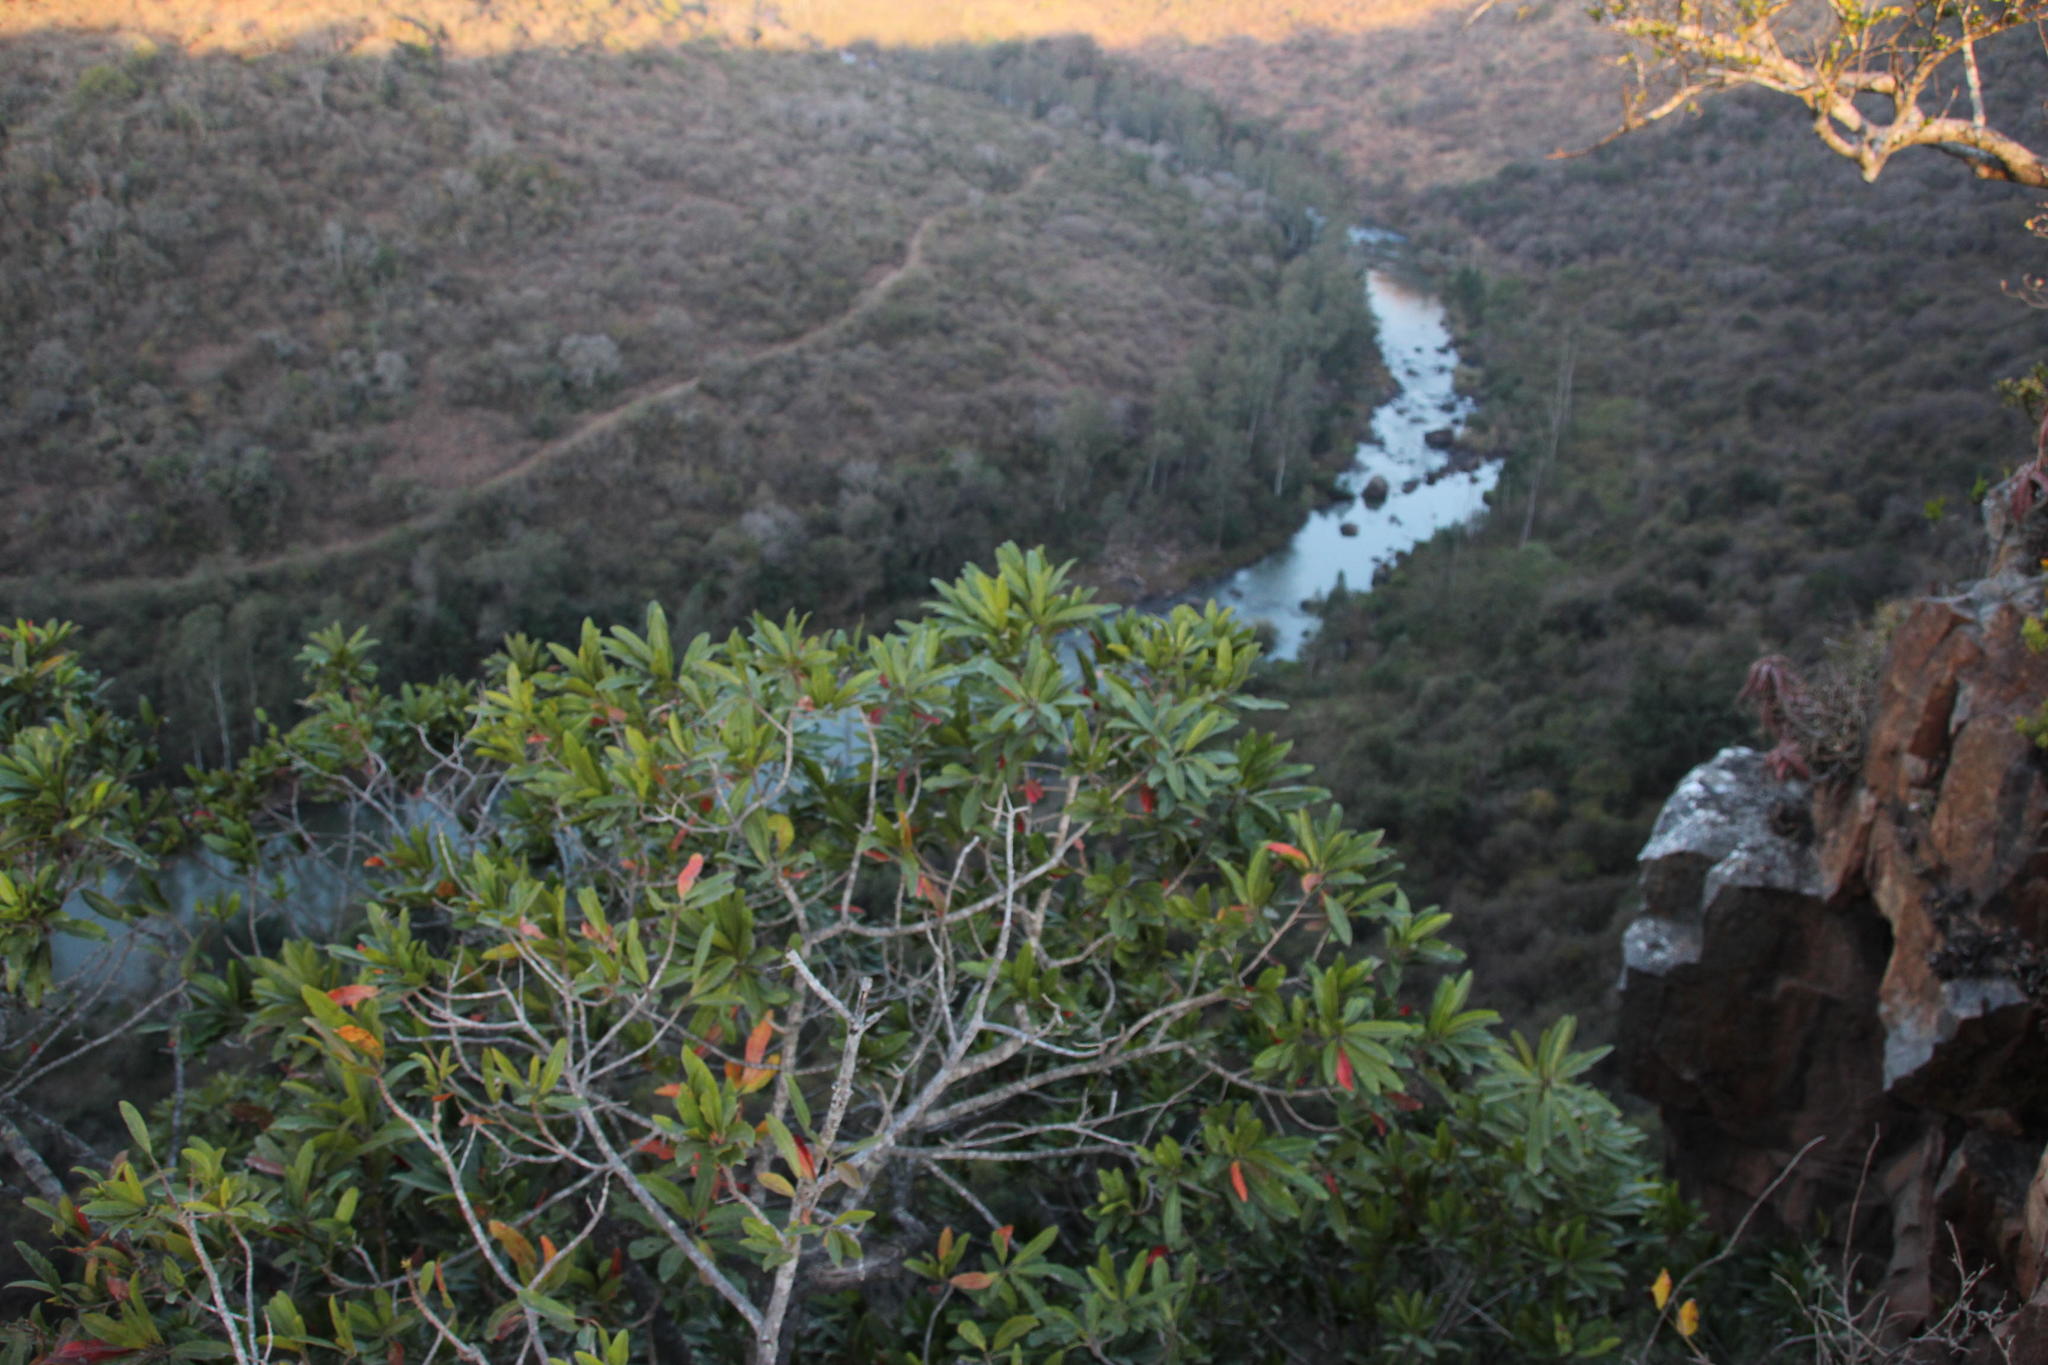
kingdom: Plantae
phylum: Tracheophyta
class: Magnoliopsida
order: Sapindales
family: Anacardiaceae
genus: Protorhus
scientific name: Protorhus longifolia
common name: Red-beech
